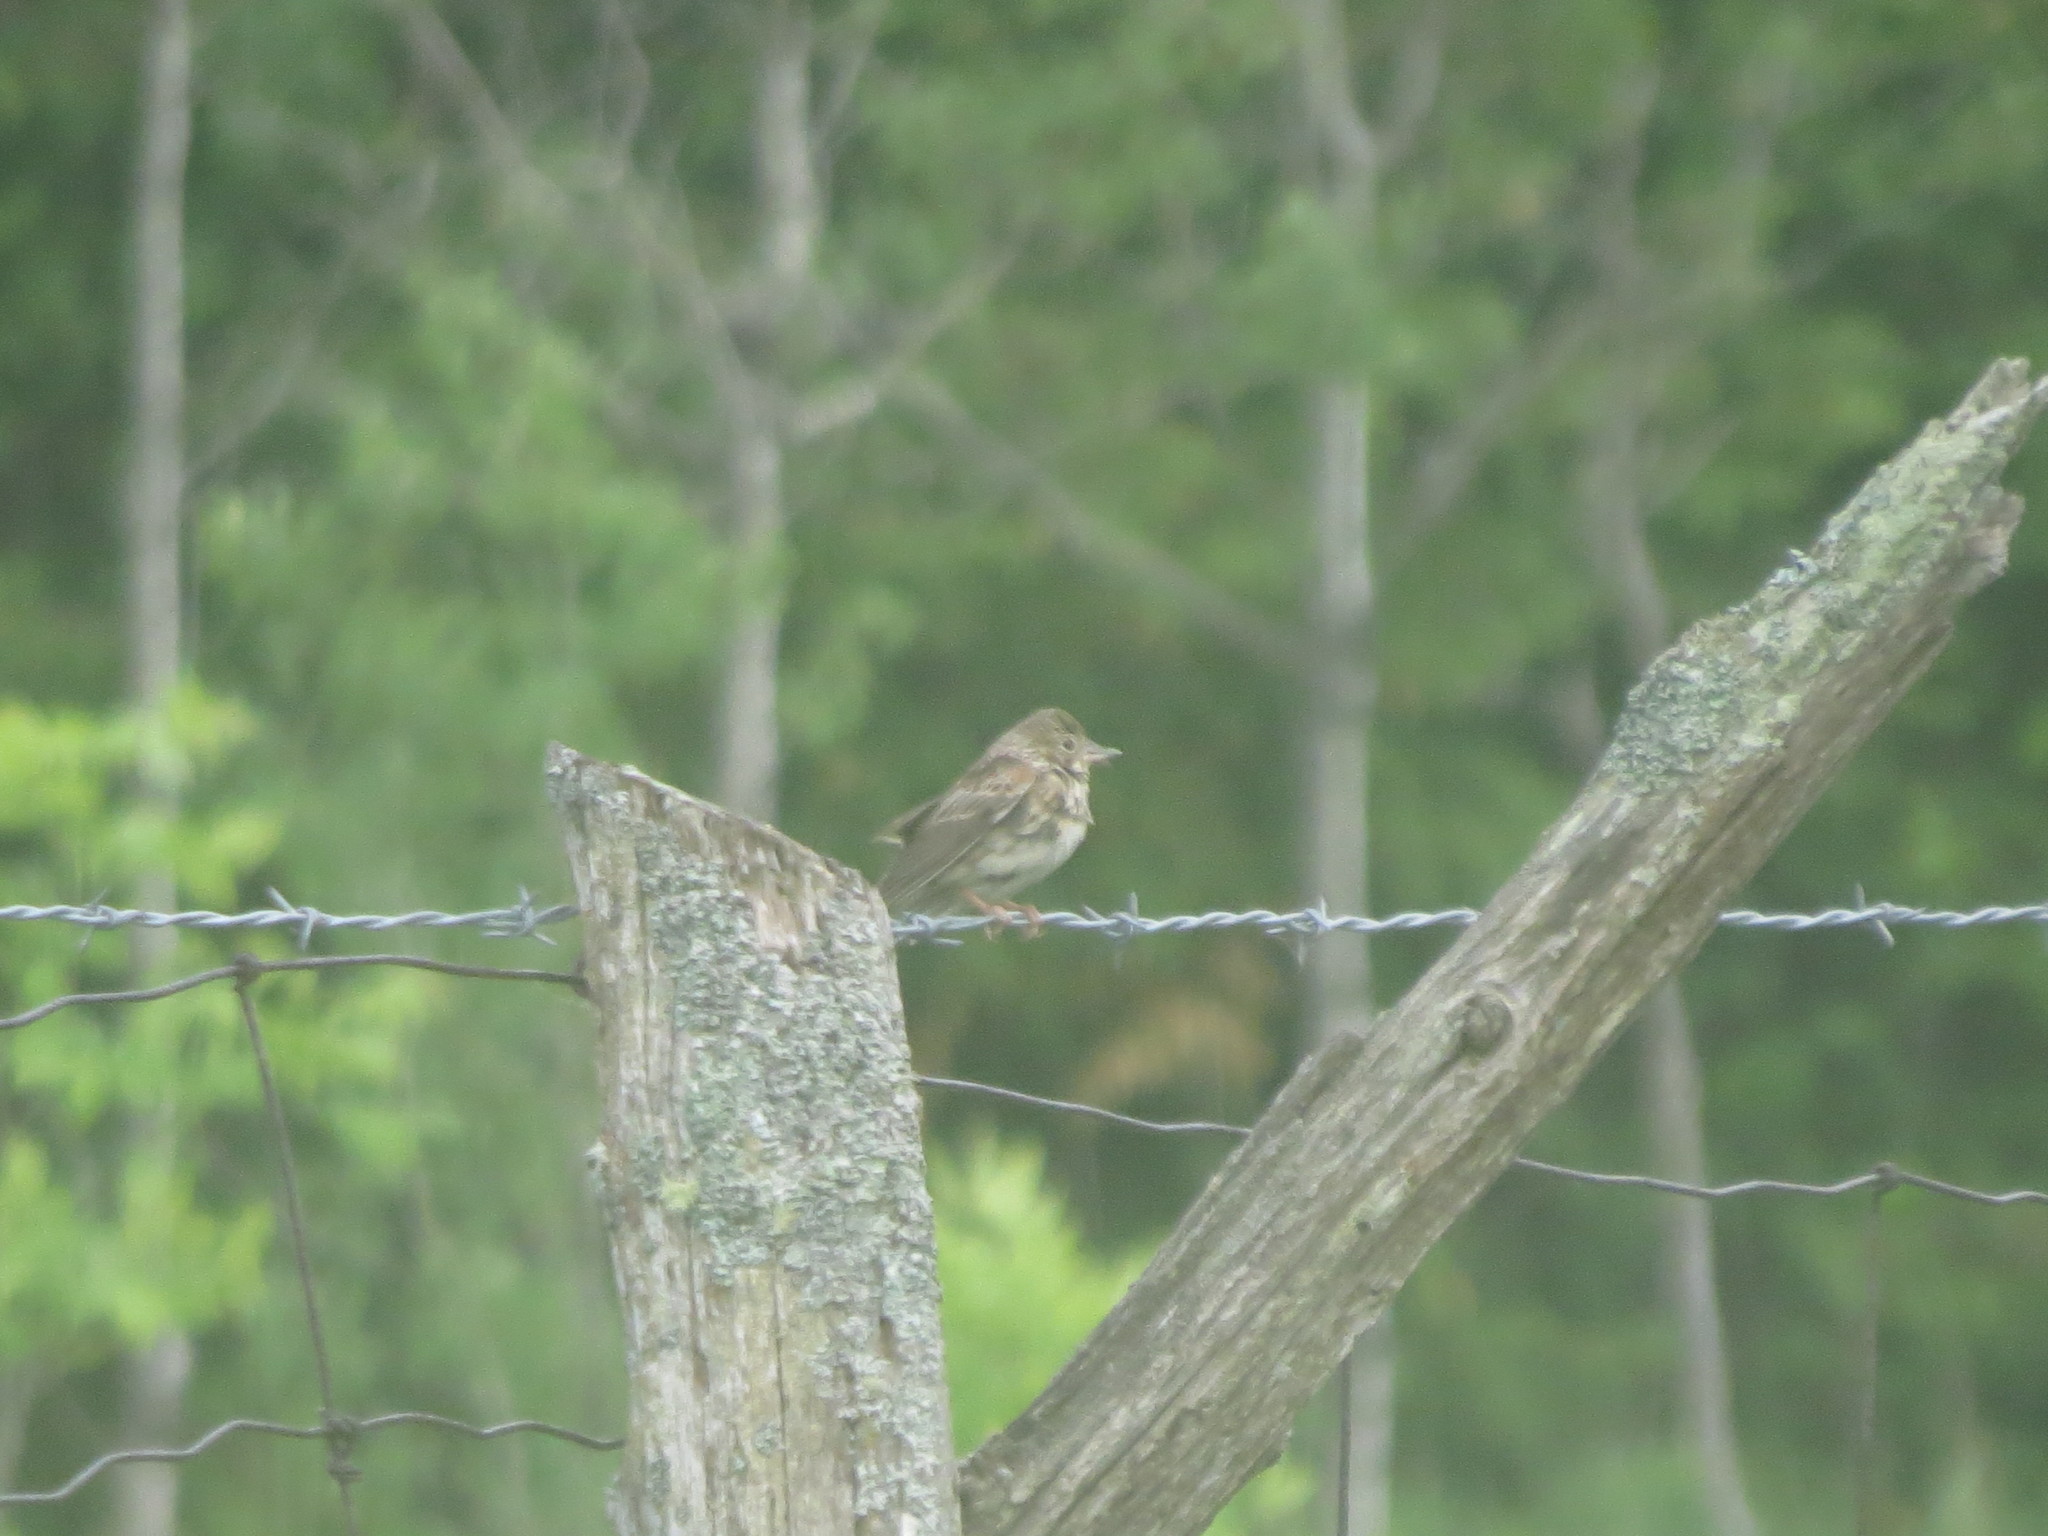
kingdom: Animalia
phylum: Chordata
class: Aves
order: Passeriformes
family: Passerellidae
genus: Pooecetes
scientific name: Pooecetes gramineus
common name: Vesper sparrow
